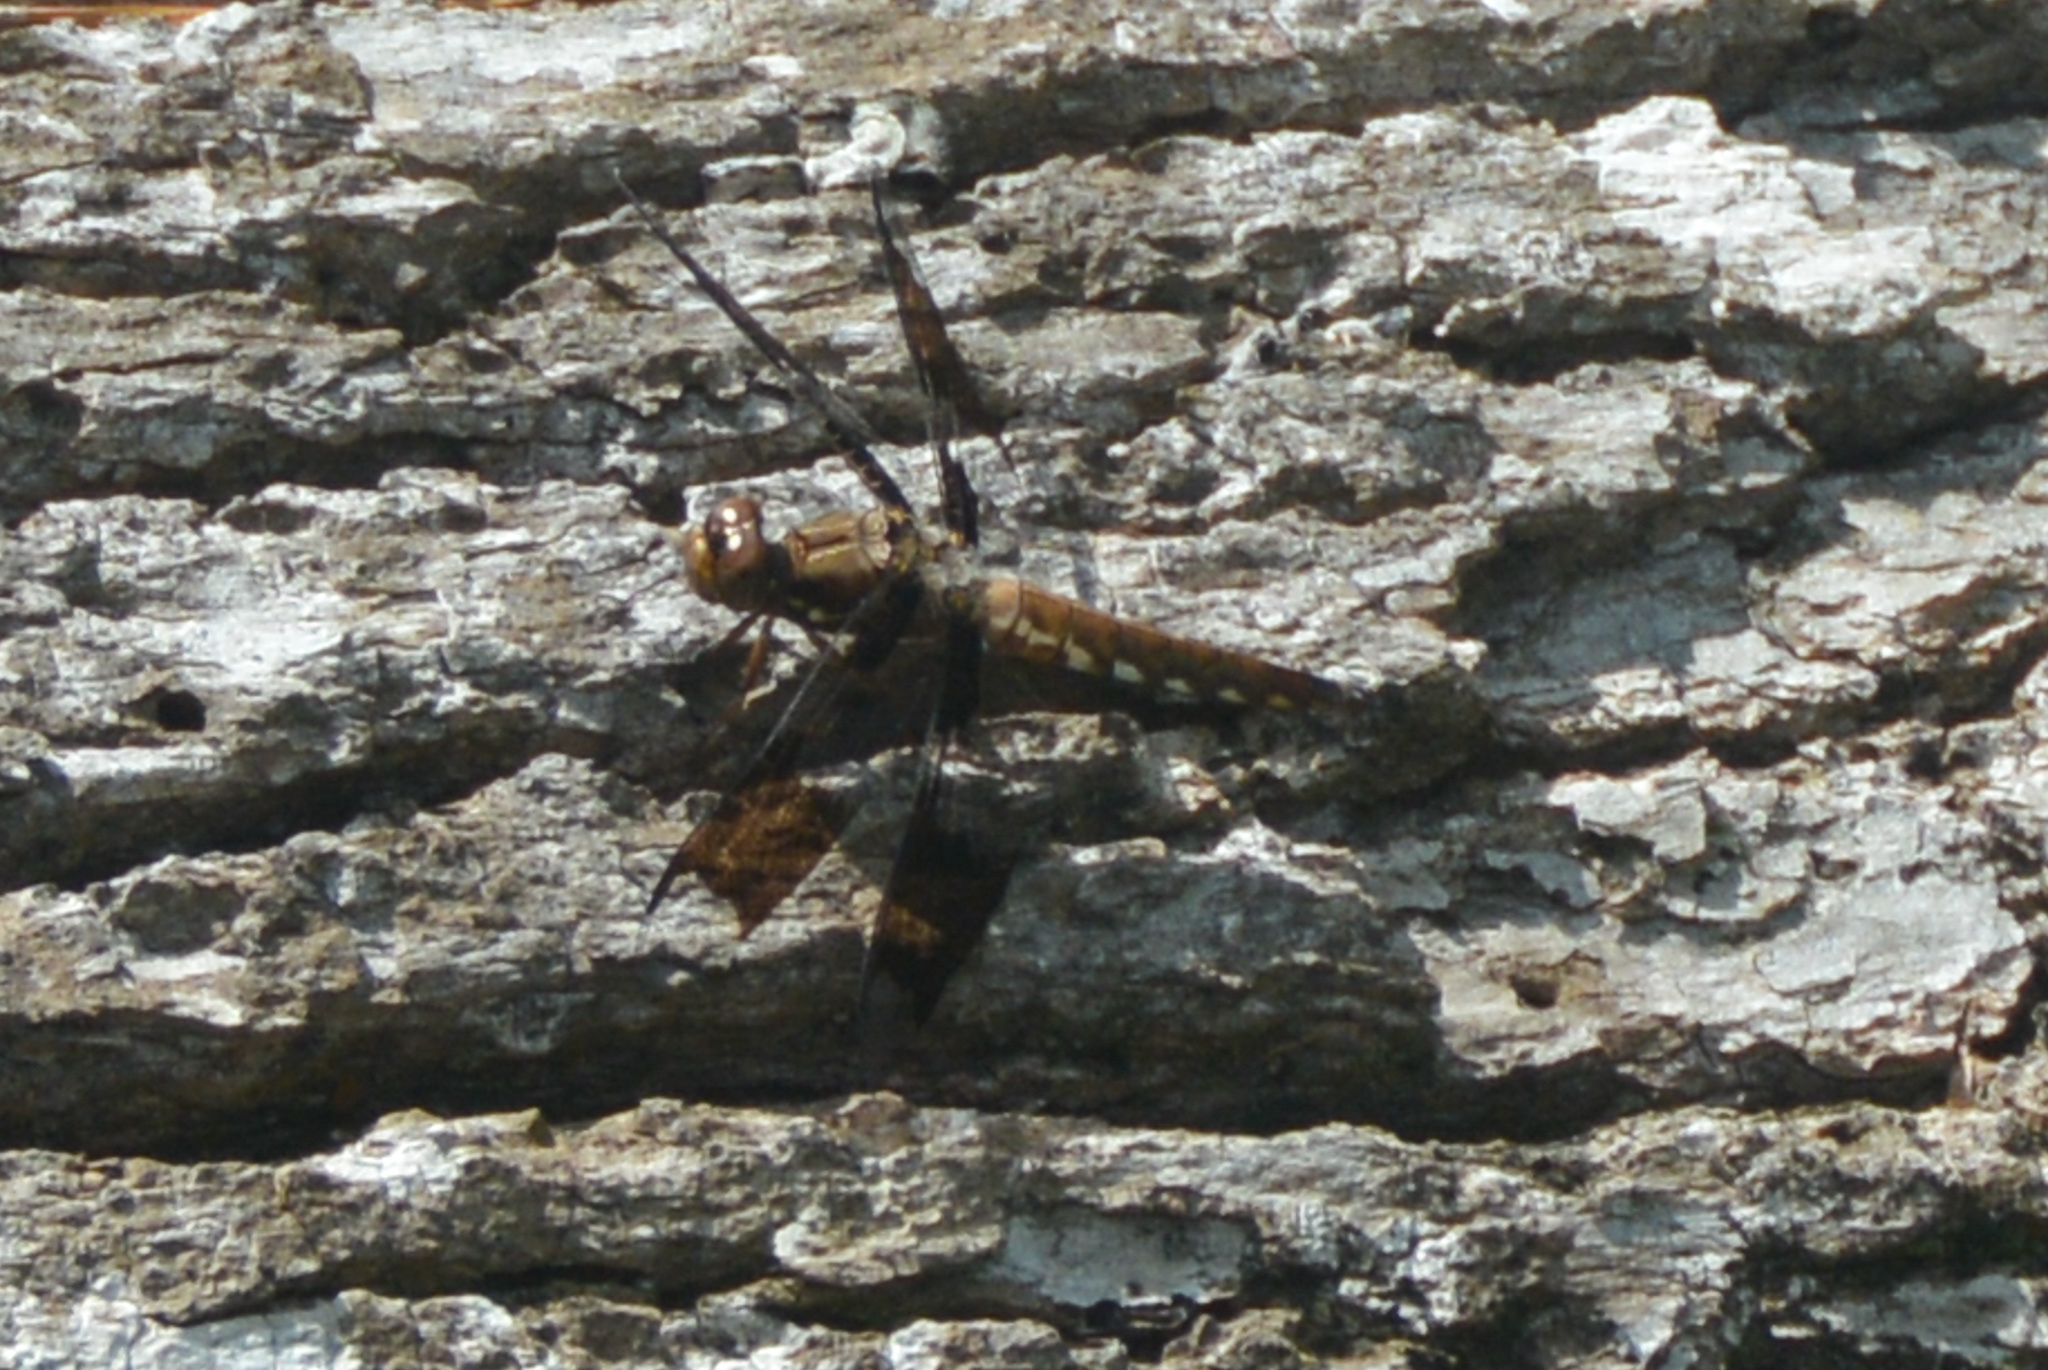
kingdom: Animalia
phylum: Arthropoda
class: Insecta
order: Odonata
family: Libellulidae
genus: Plathemis
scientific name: Plathemis lydia
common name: Common whitetail
